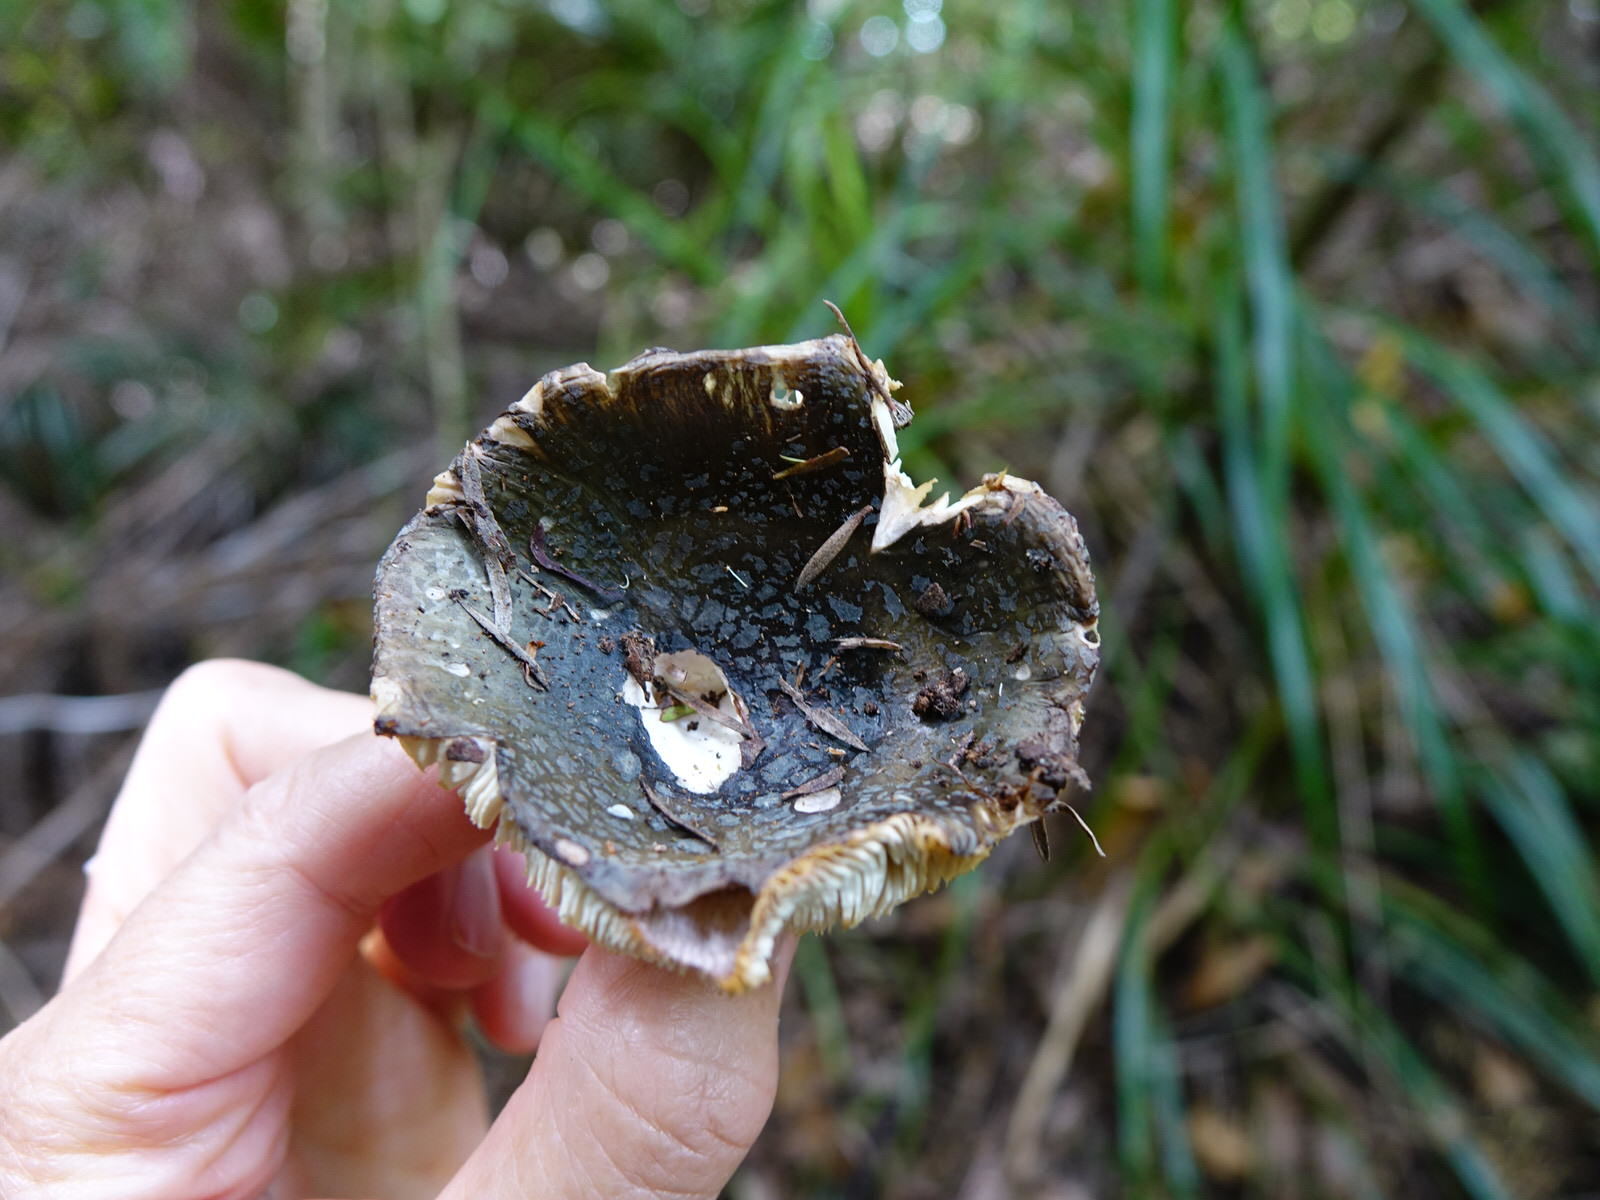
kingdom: Fungi
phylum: Basidiomycota
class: Agaricomycetes
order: Russulales
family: Russulaceae
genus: Russula
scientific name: Russula griseoviridis
